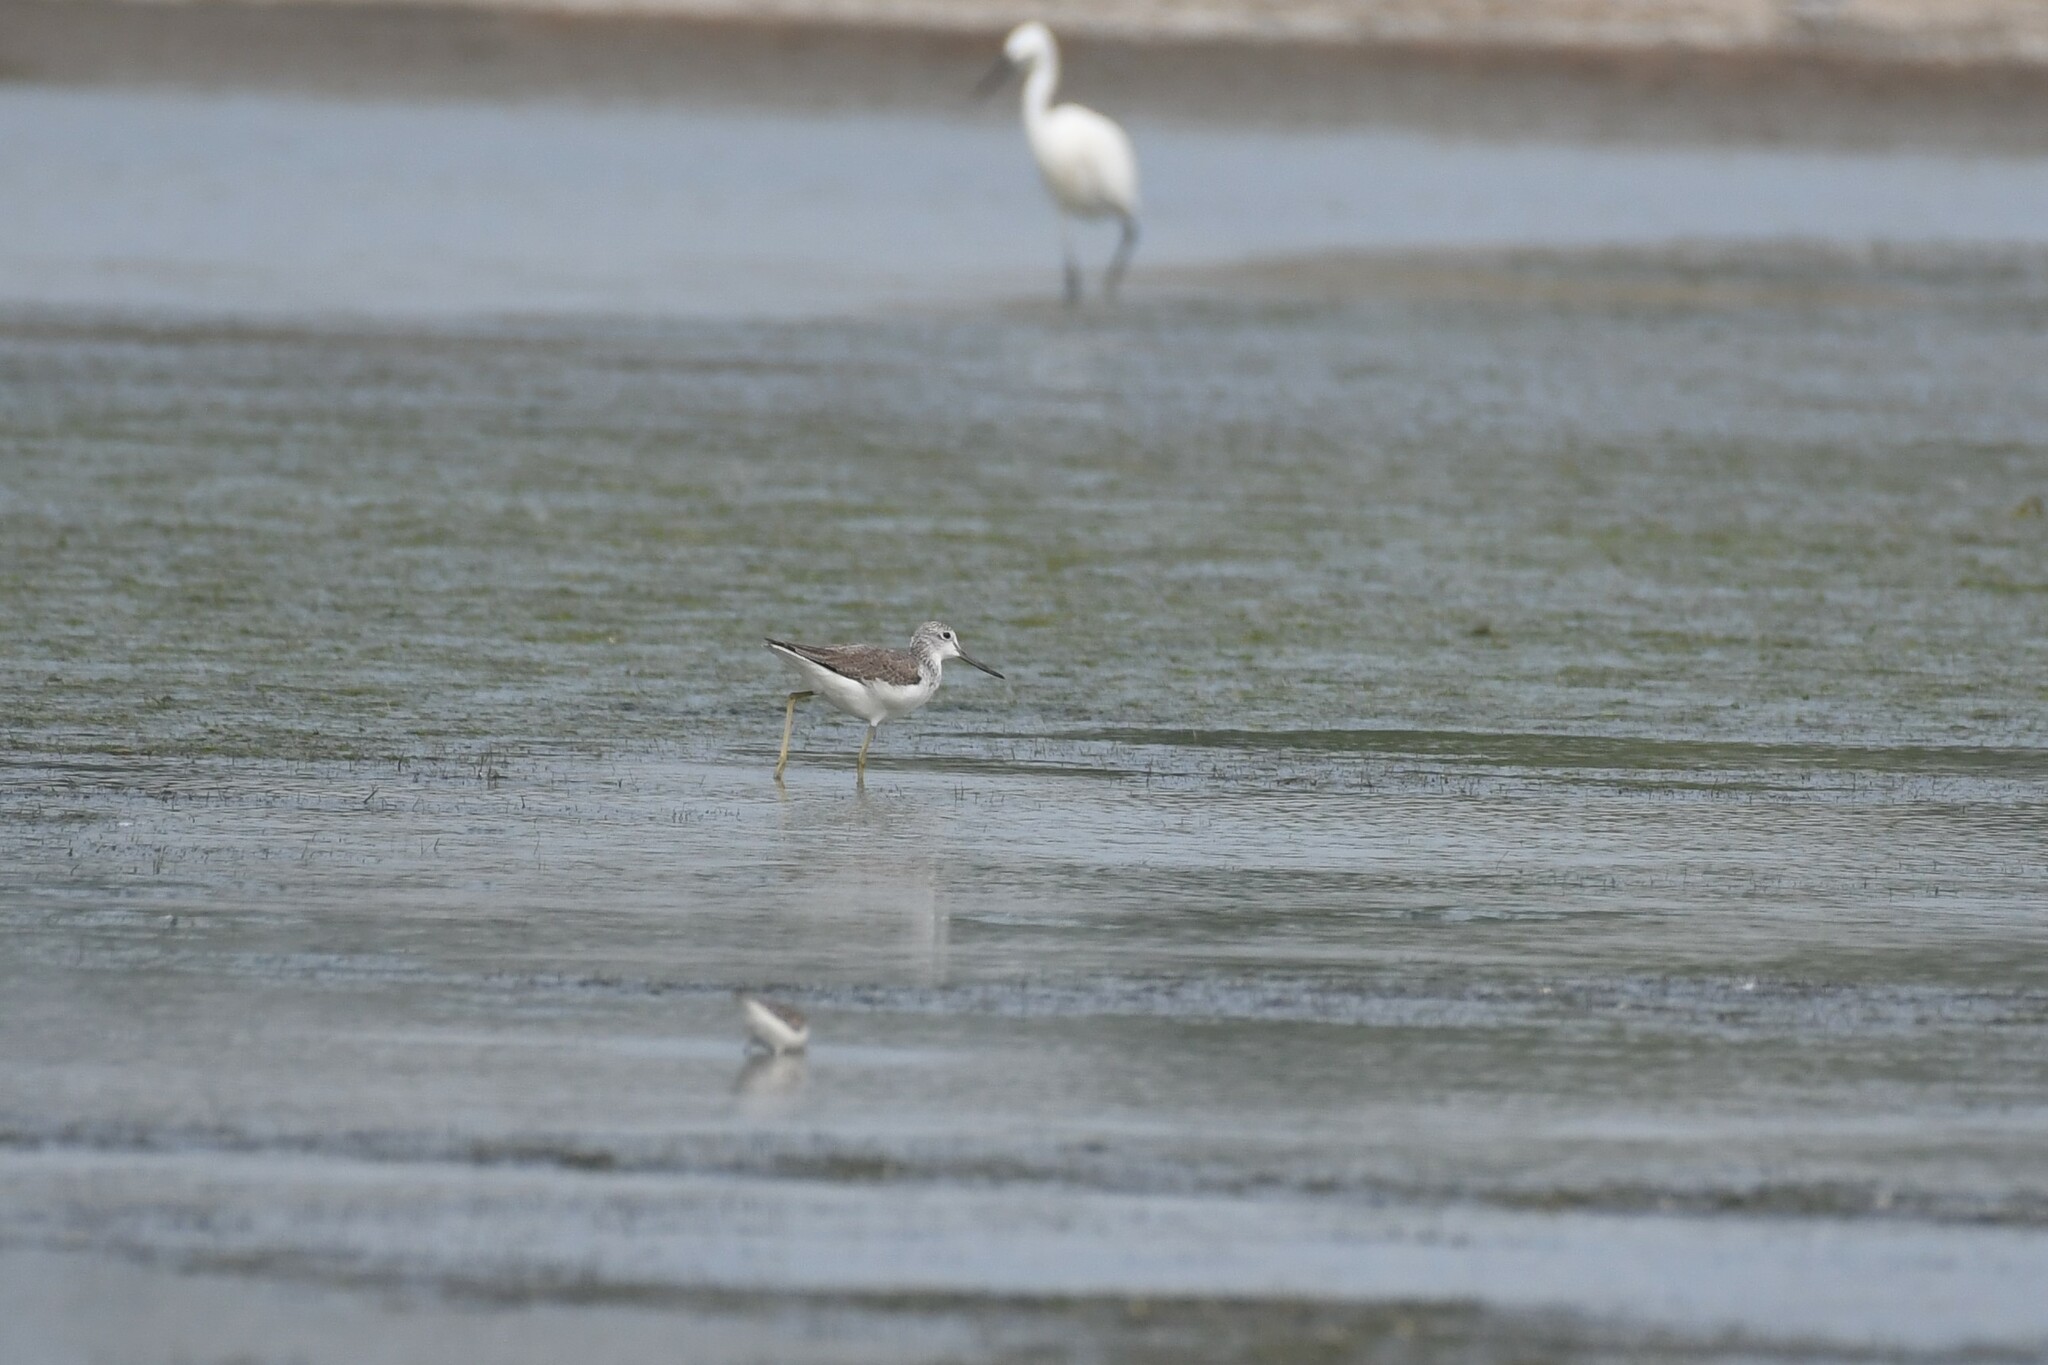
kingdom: Animalia
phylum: Chordata
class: Aves
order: Charadriiformes
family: Scolopacidae
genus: Tringa
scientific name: Tringa nebularia
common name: Common greenshank
